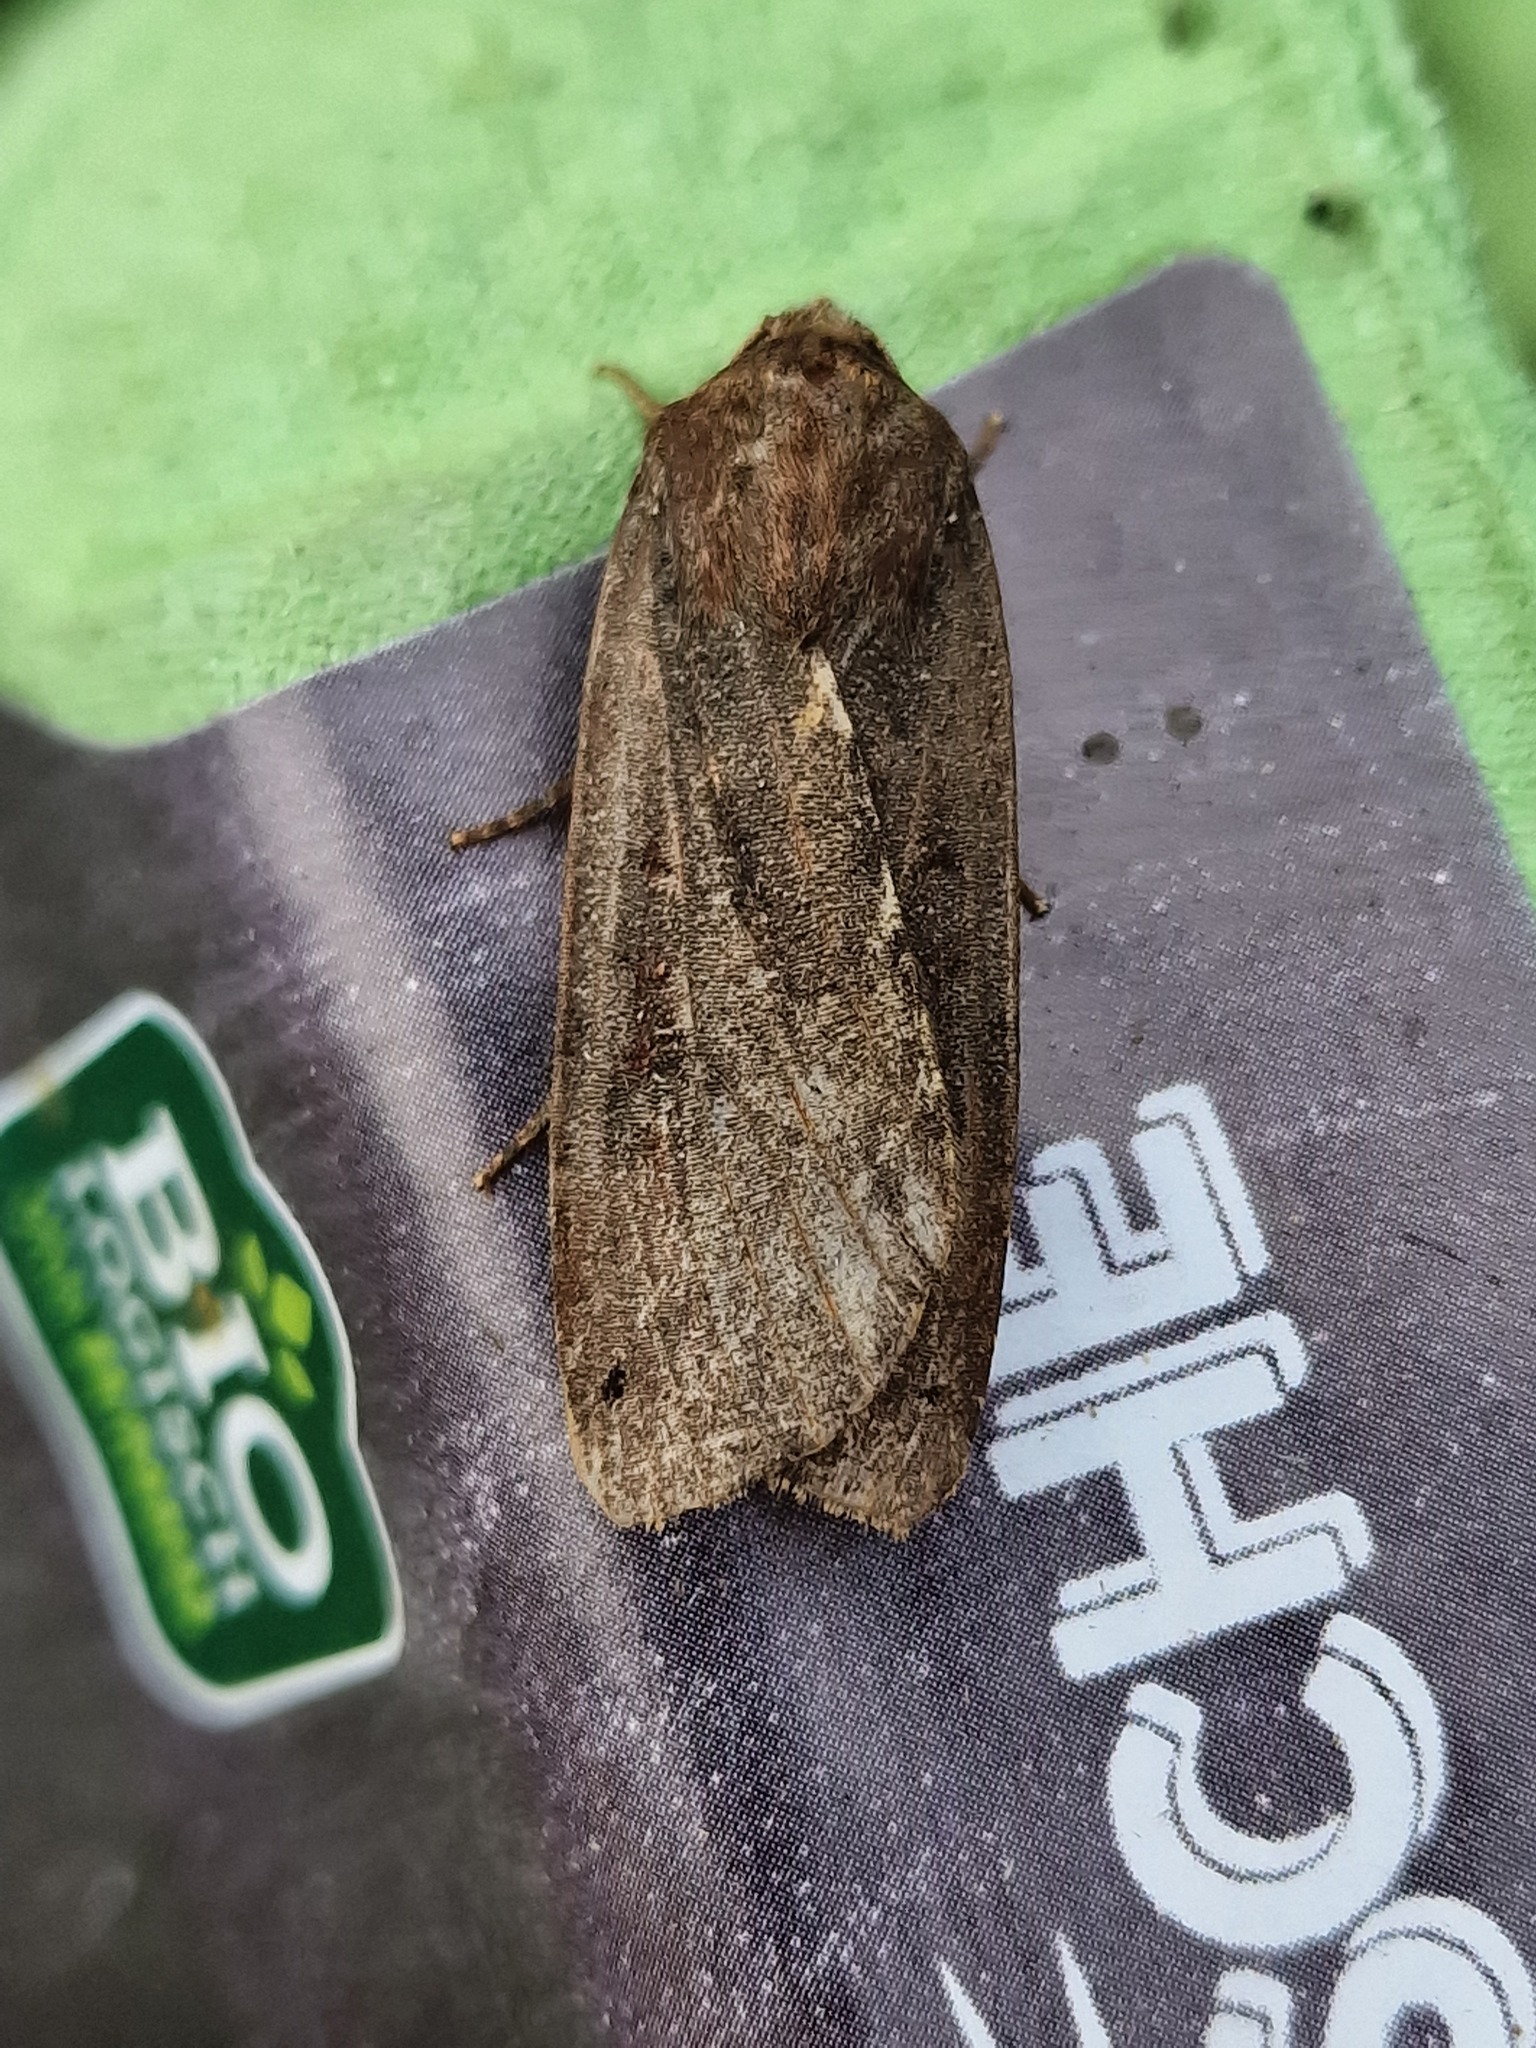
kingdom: Animalia
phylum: Arthropoda
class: Insecta
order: Lepidoptera
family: Noctuidae
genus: Noctua
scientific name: Noctua pronuba
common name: Large yellow underwing
